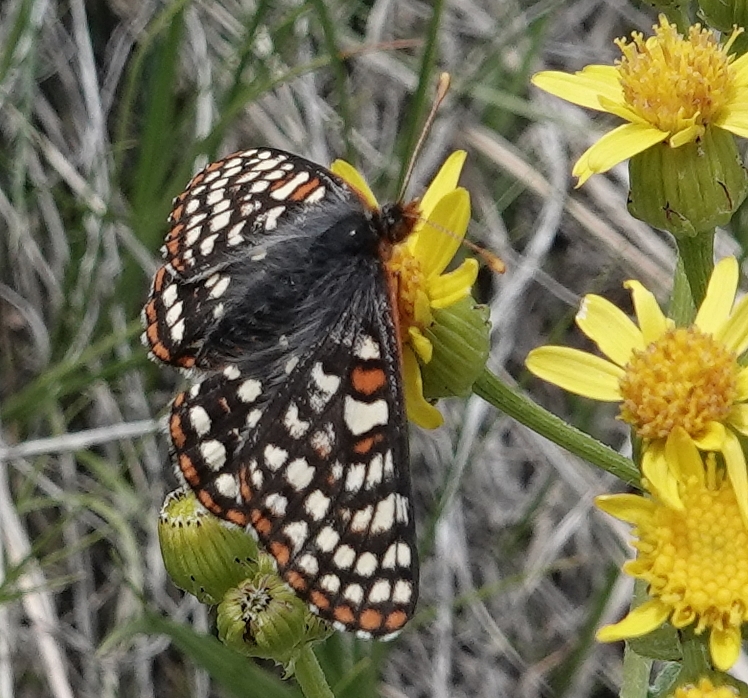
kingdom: Animalia
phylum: Arthropoda
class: Insecta
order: Lepidoptera
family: Nymphalidae
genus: Occidryas
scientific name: Occidryas anicia
